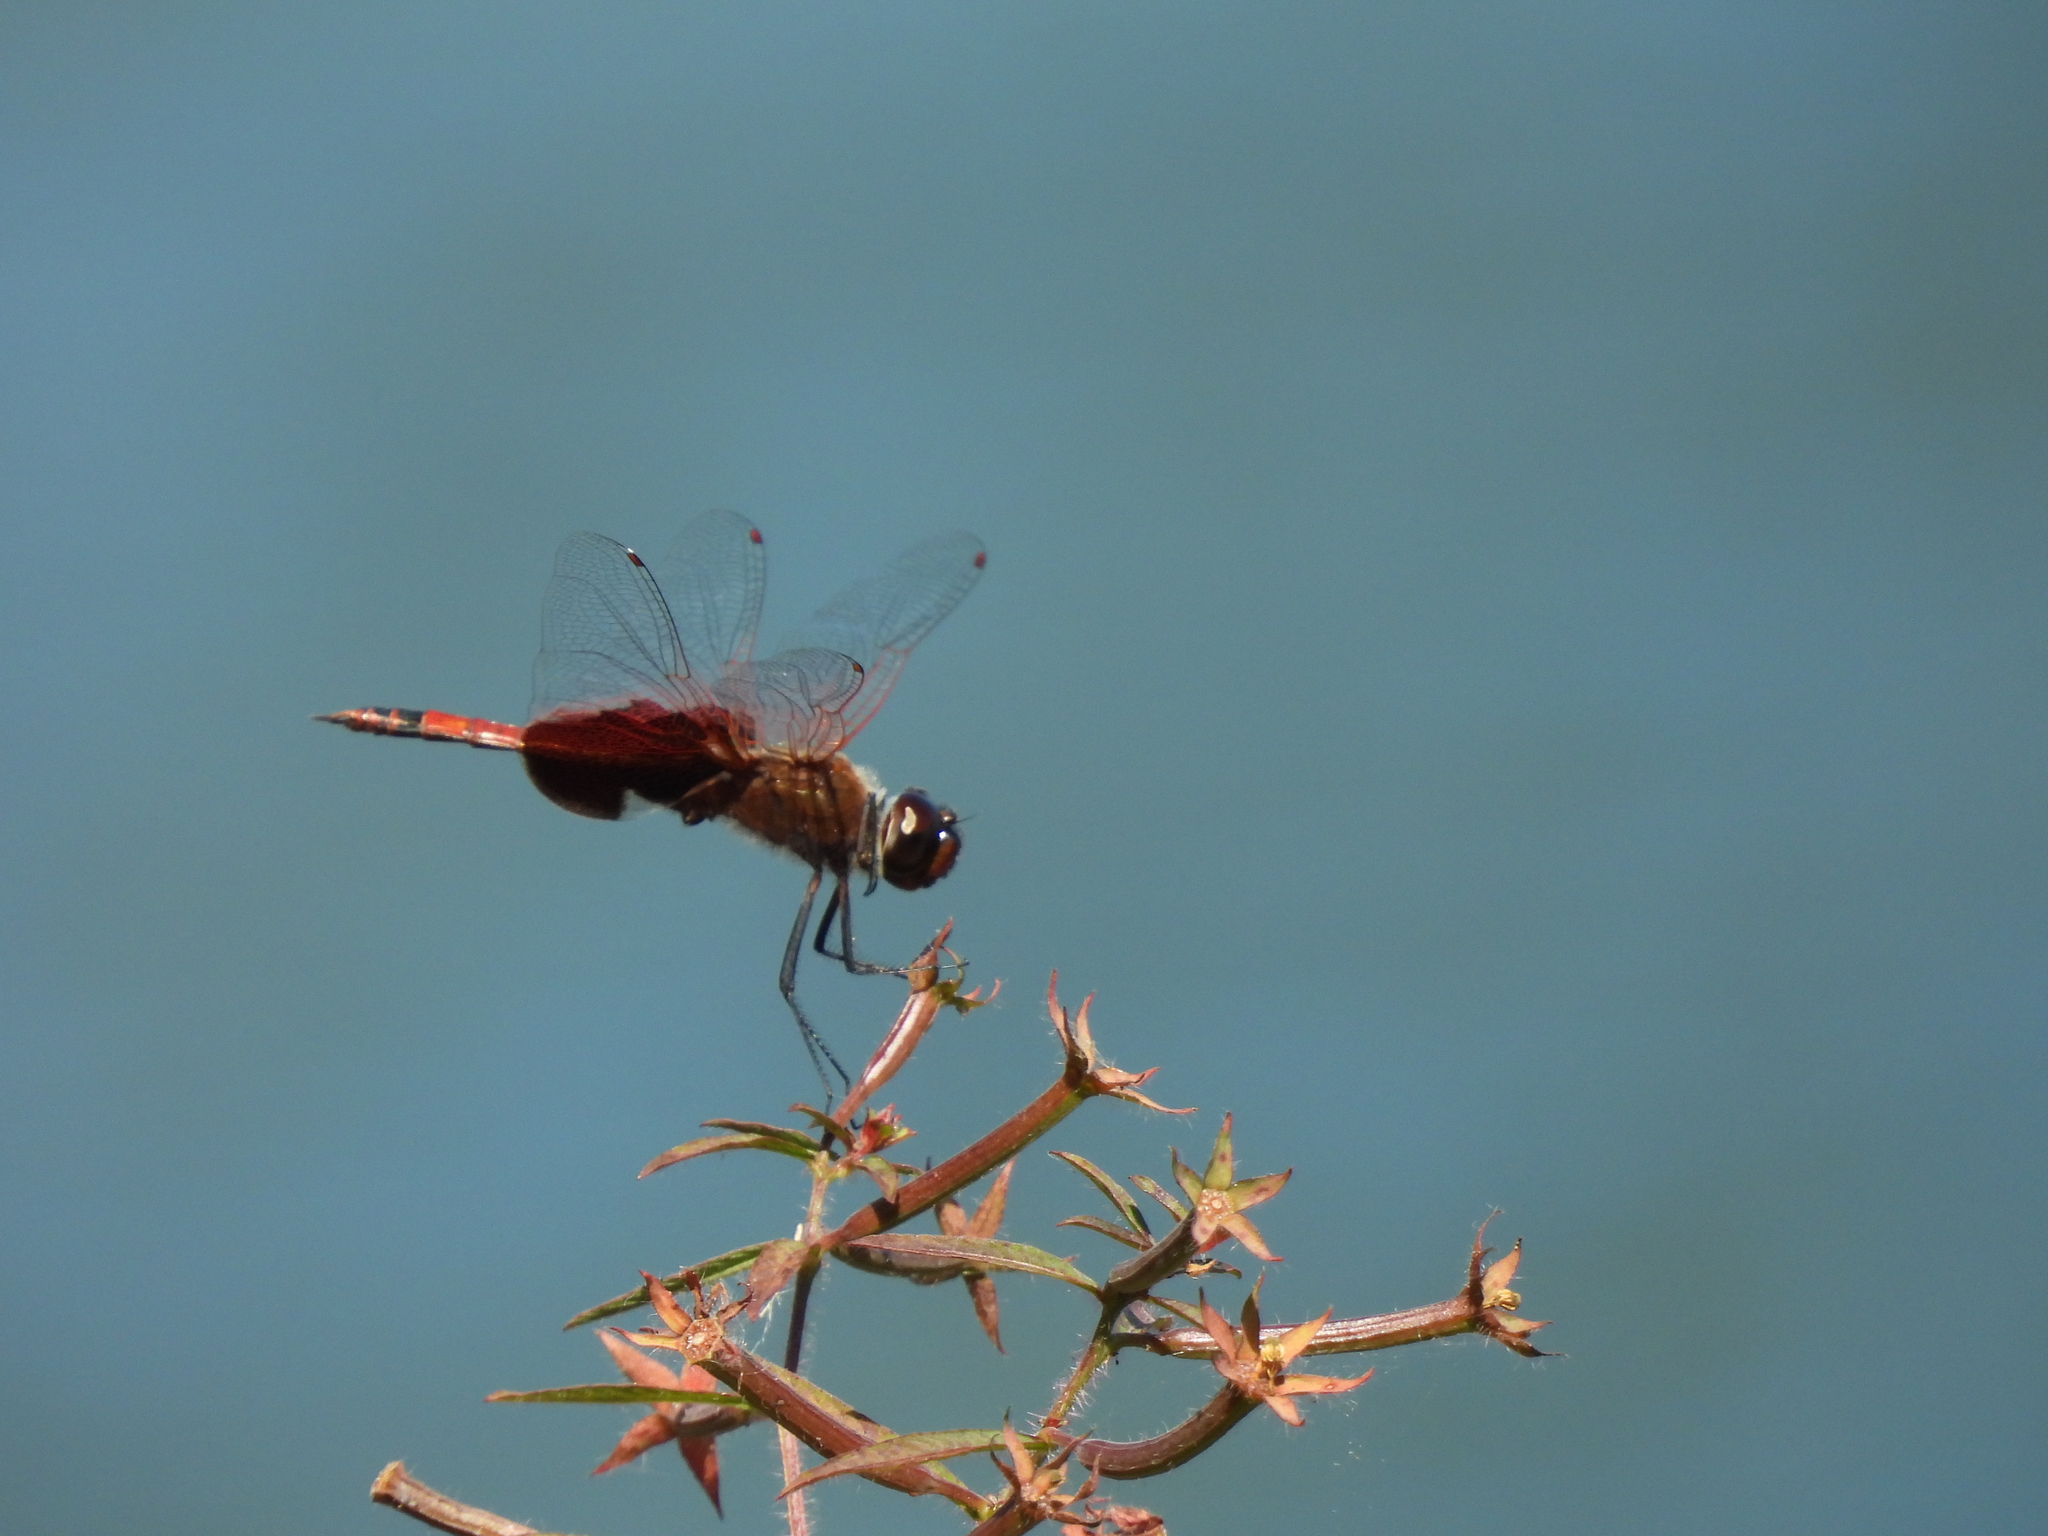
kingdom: Animalia
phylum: Arthropoda
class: Insecta
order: Odonata
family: Libellulidae
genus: Tramea
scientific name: Tramea carolina
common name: Carolina saddlebags
